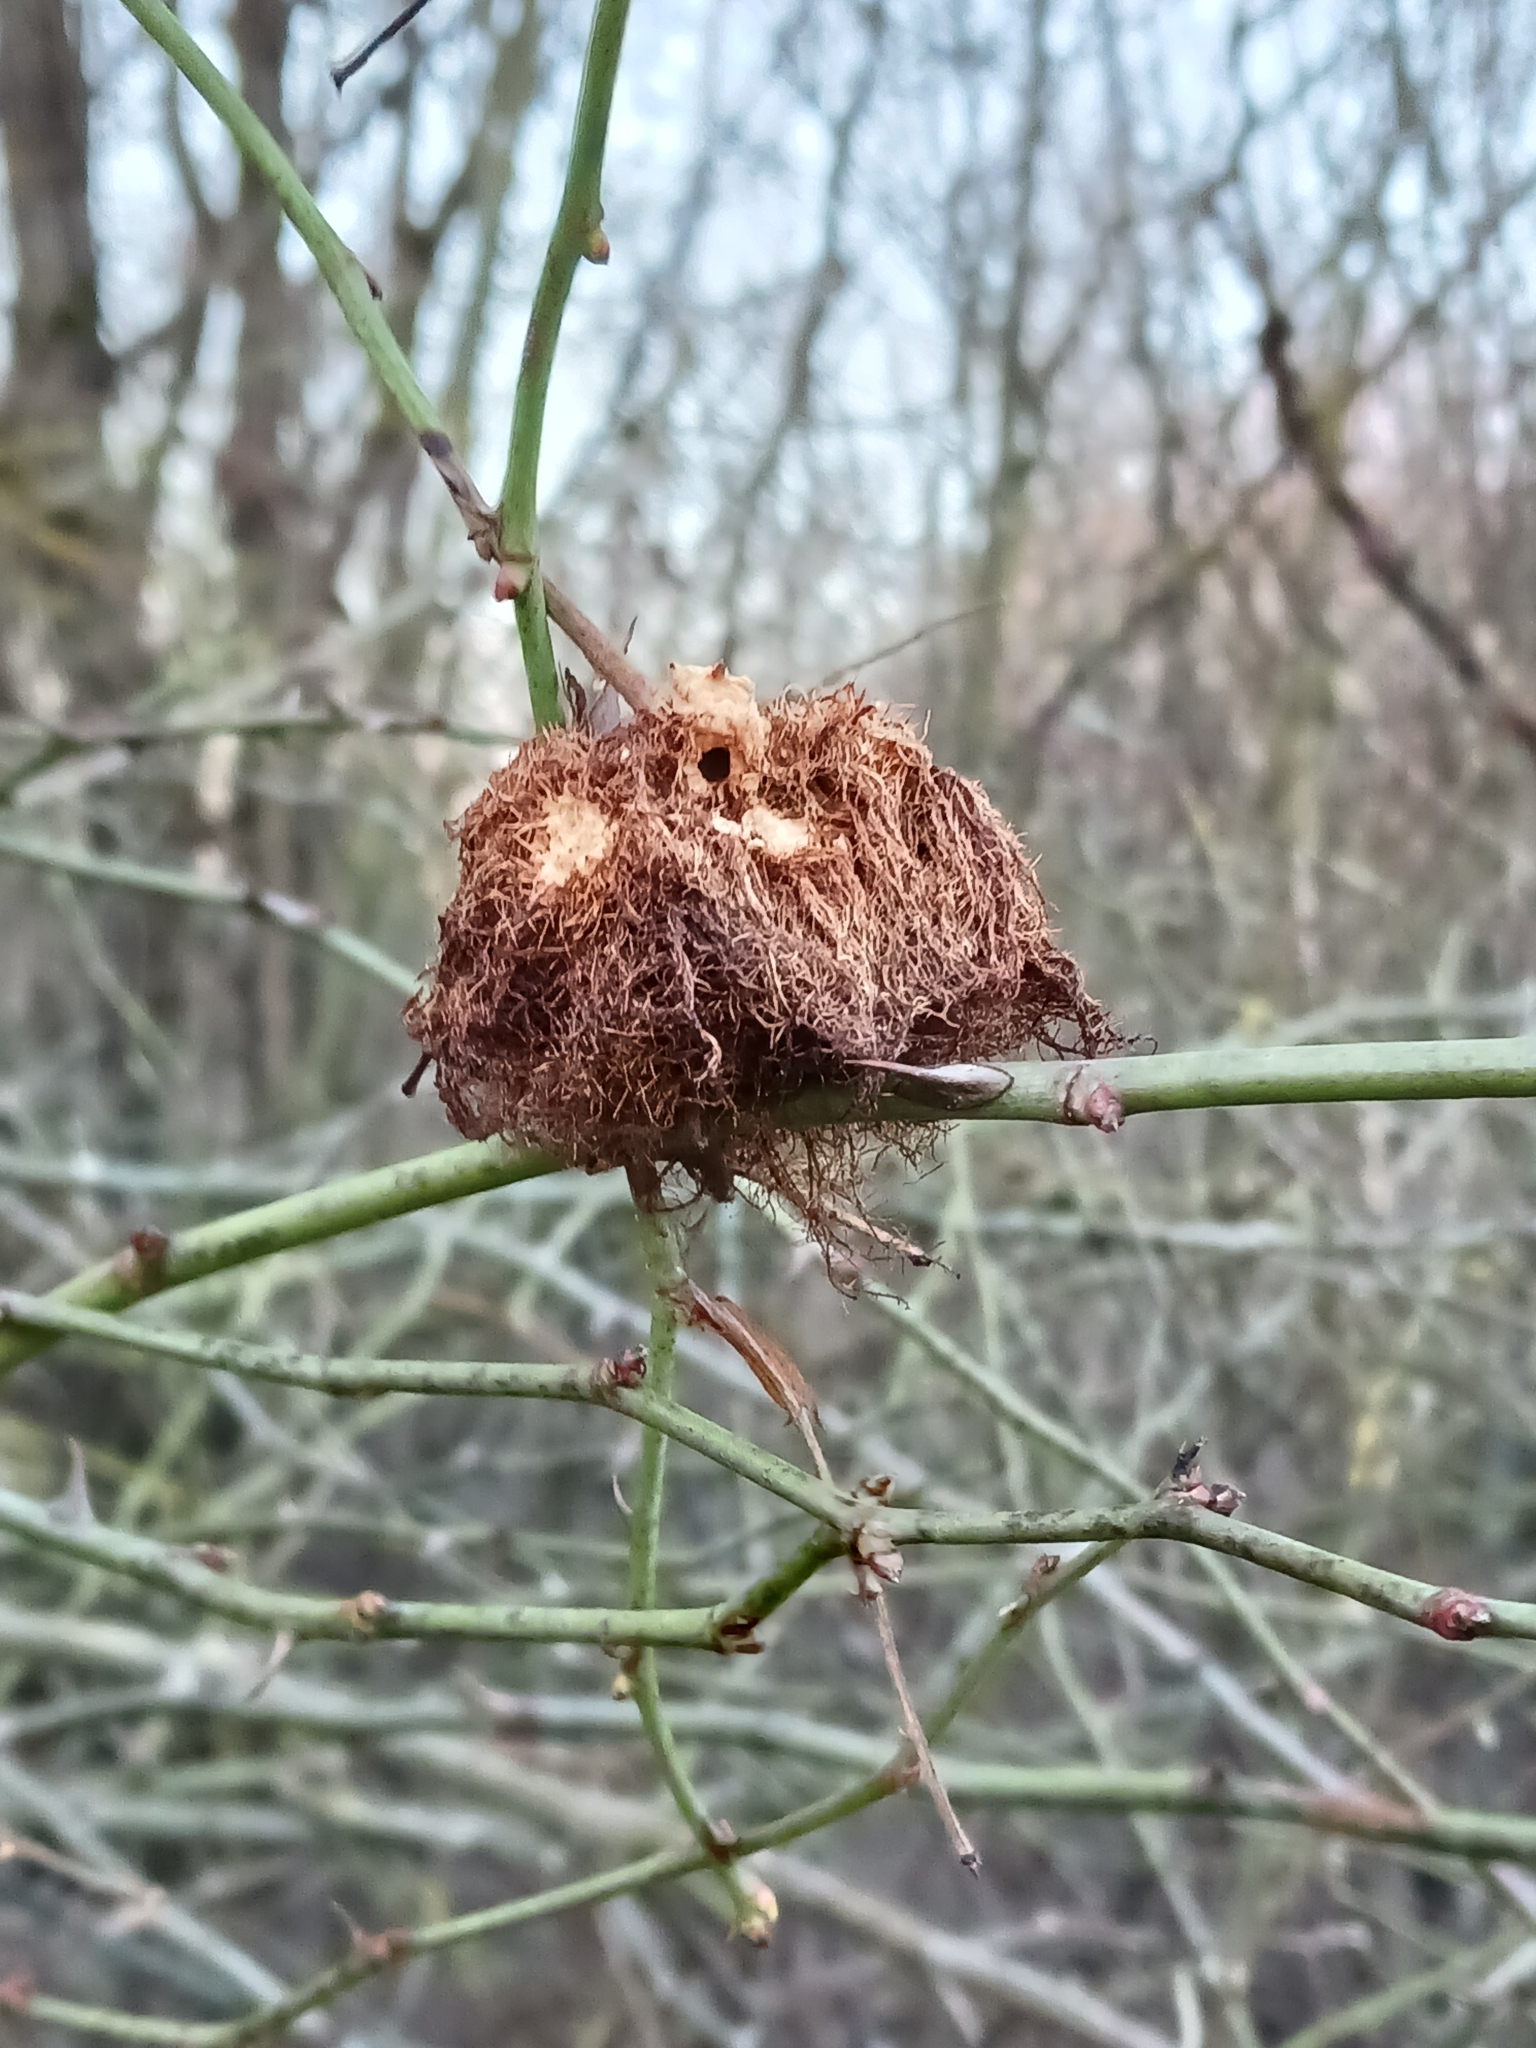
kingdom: Animalia
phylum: Arthropoda
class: Insecta
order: Hymenoptera
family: Cynipidae
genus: Diplolepis
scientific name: Diplolepis rosae
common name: Bedeguar gall
